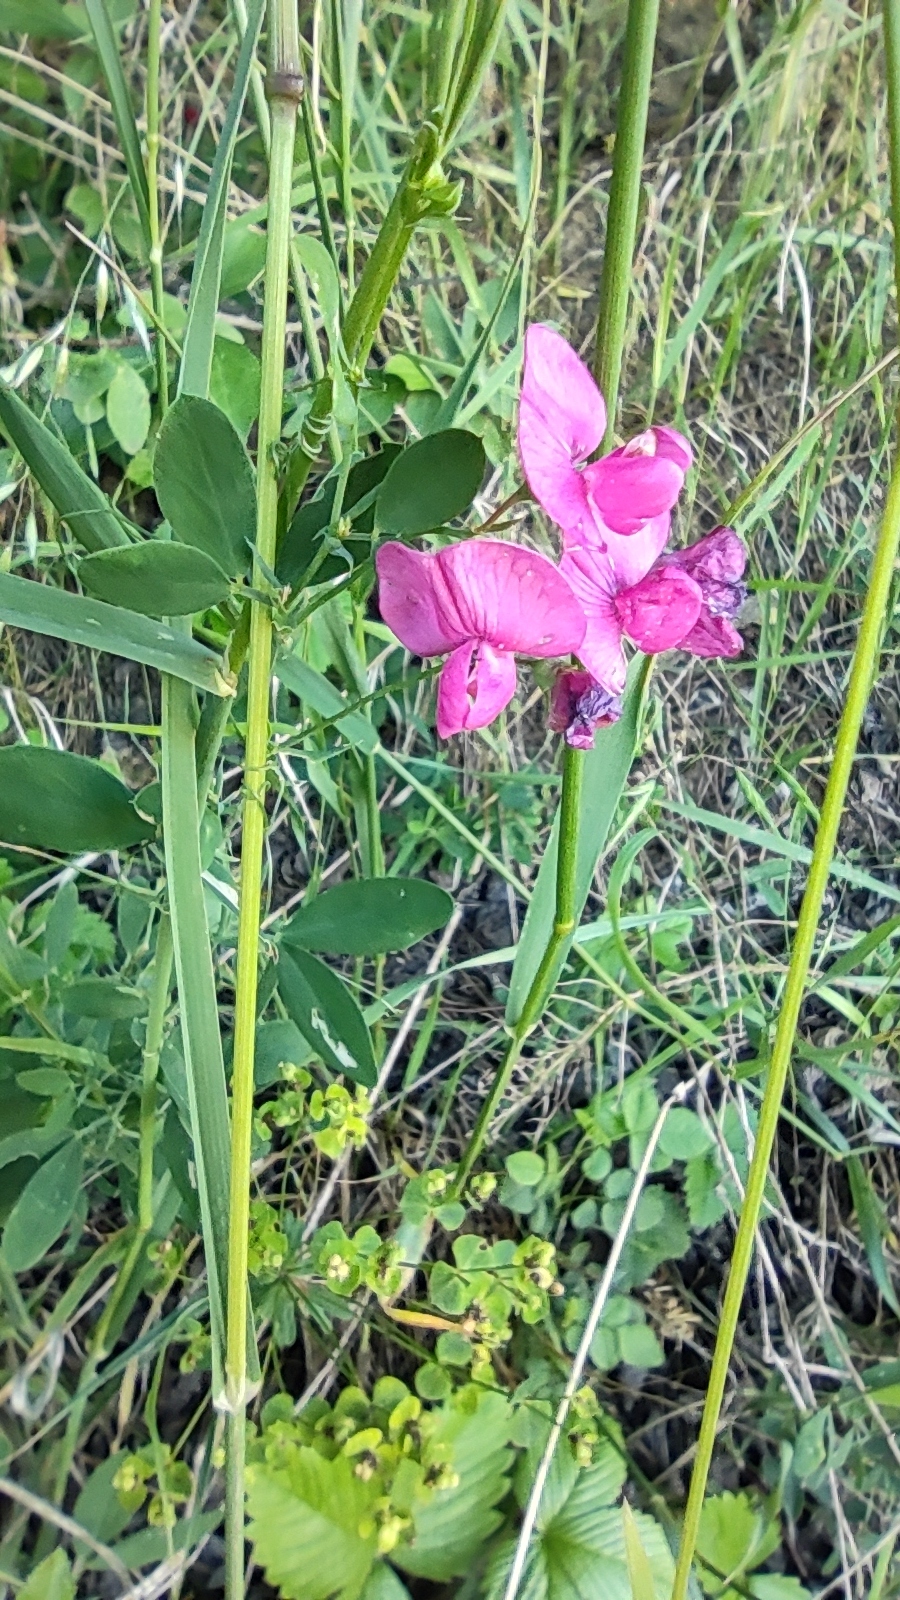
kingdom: Plantae
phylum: Tracheophyta
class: Magnoliopsida
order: Fabales
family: Fabaceae
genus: Lathyrus
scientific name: Lathyrus tuberosus
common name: Tuberous pea
